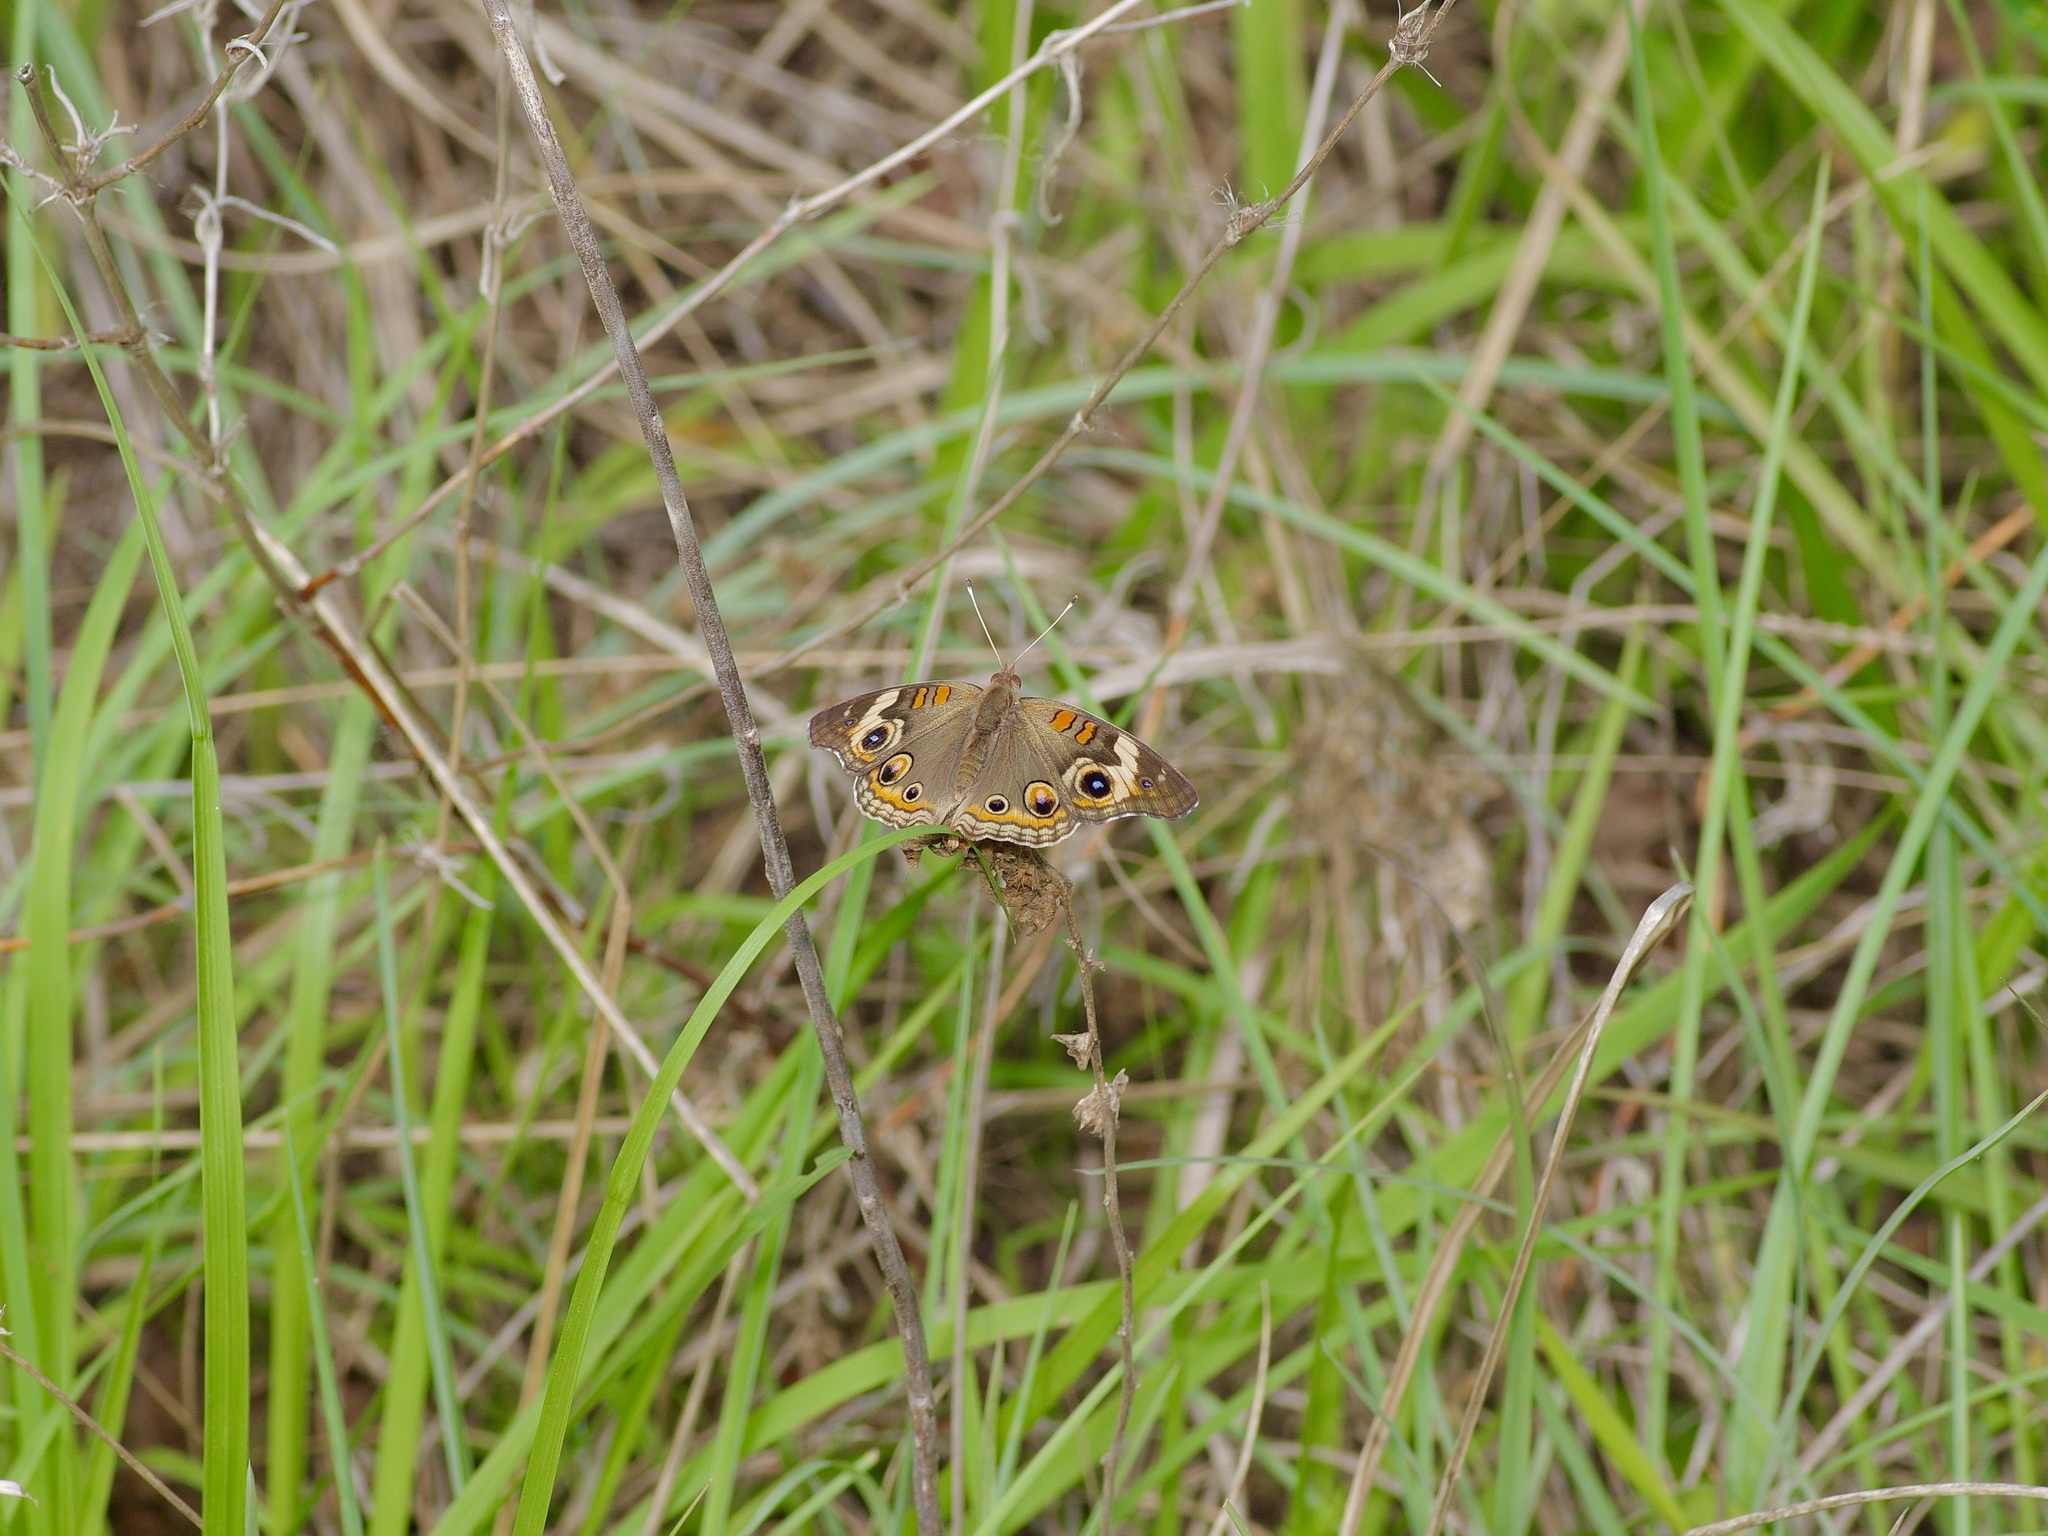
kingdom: Animalia
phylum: Arthropoda
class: Insecta
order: Lepidoptera
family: Nymphalidae
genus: Junonia
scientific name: Junonia coenia
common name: Common buckeye
